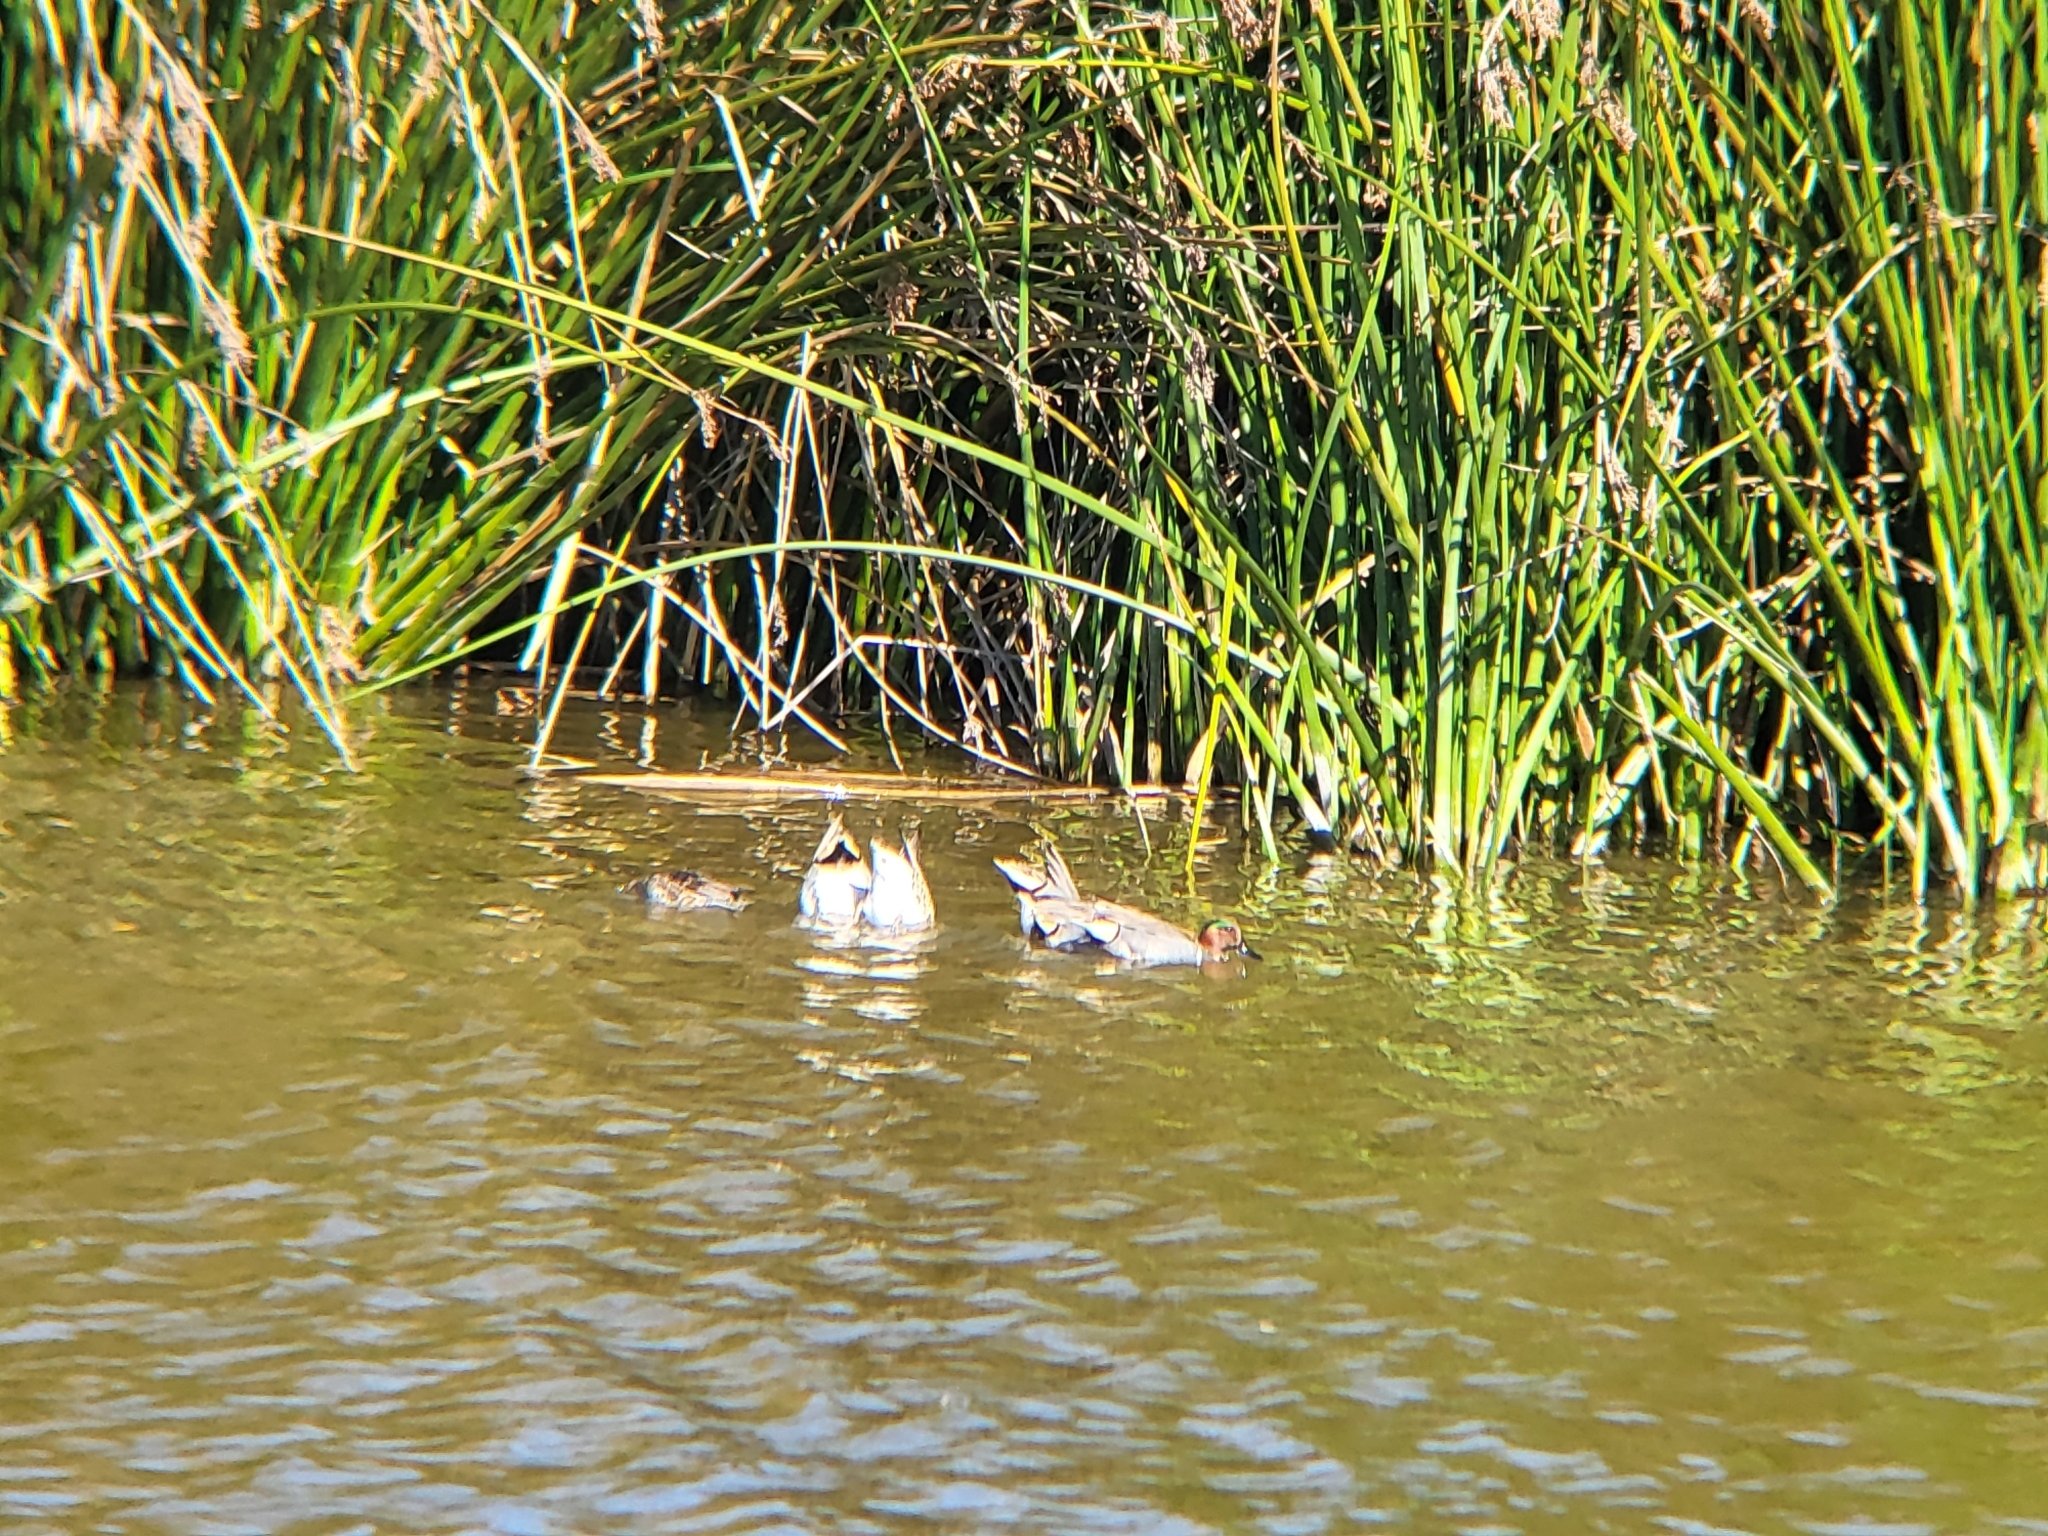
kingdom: Animalia
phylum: Chordata
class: Aves
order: Anseriformes
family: Anatidae
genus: Anas
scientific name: Anas crecca
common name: Eurasian teal
